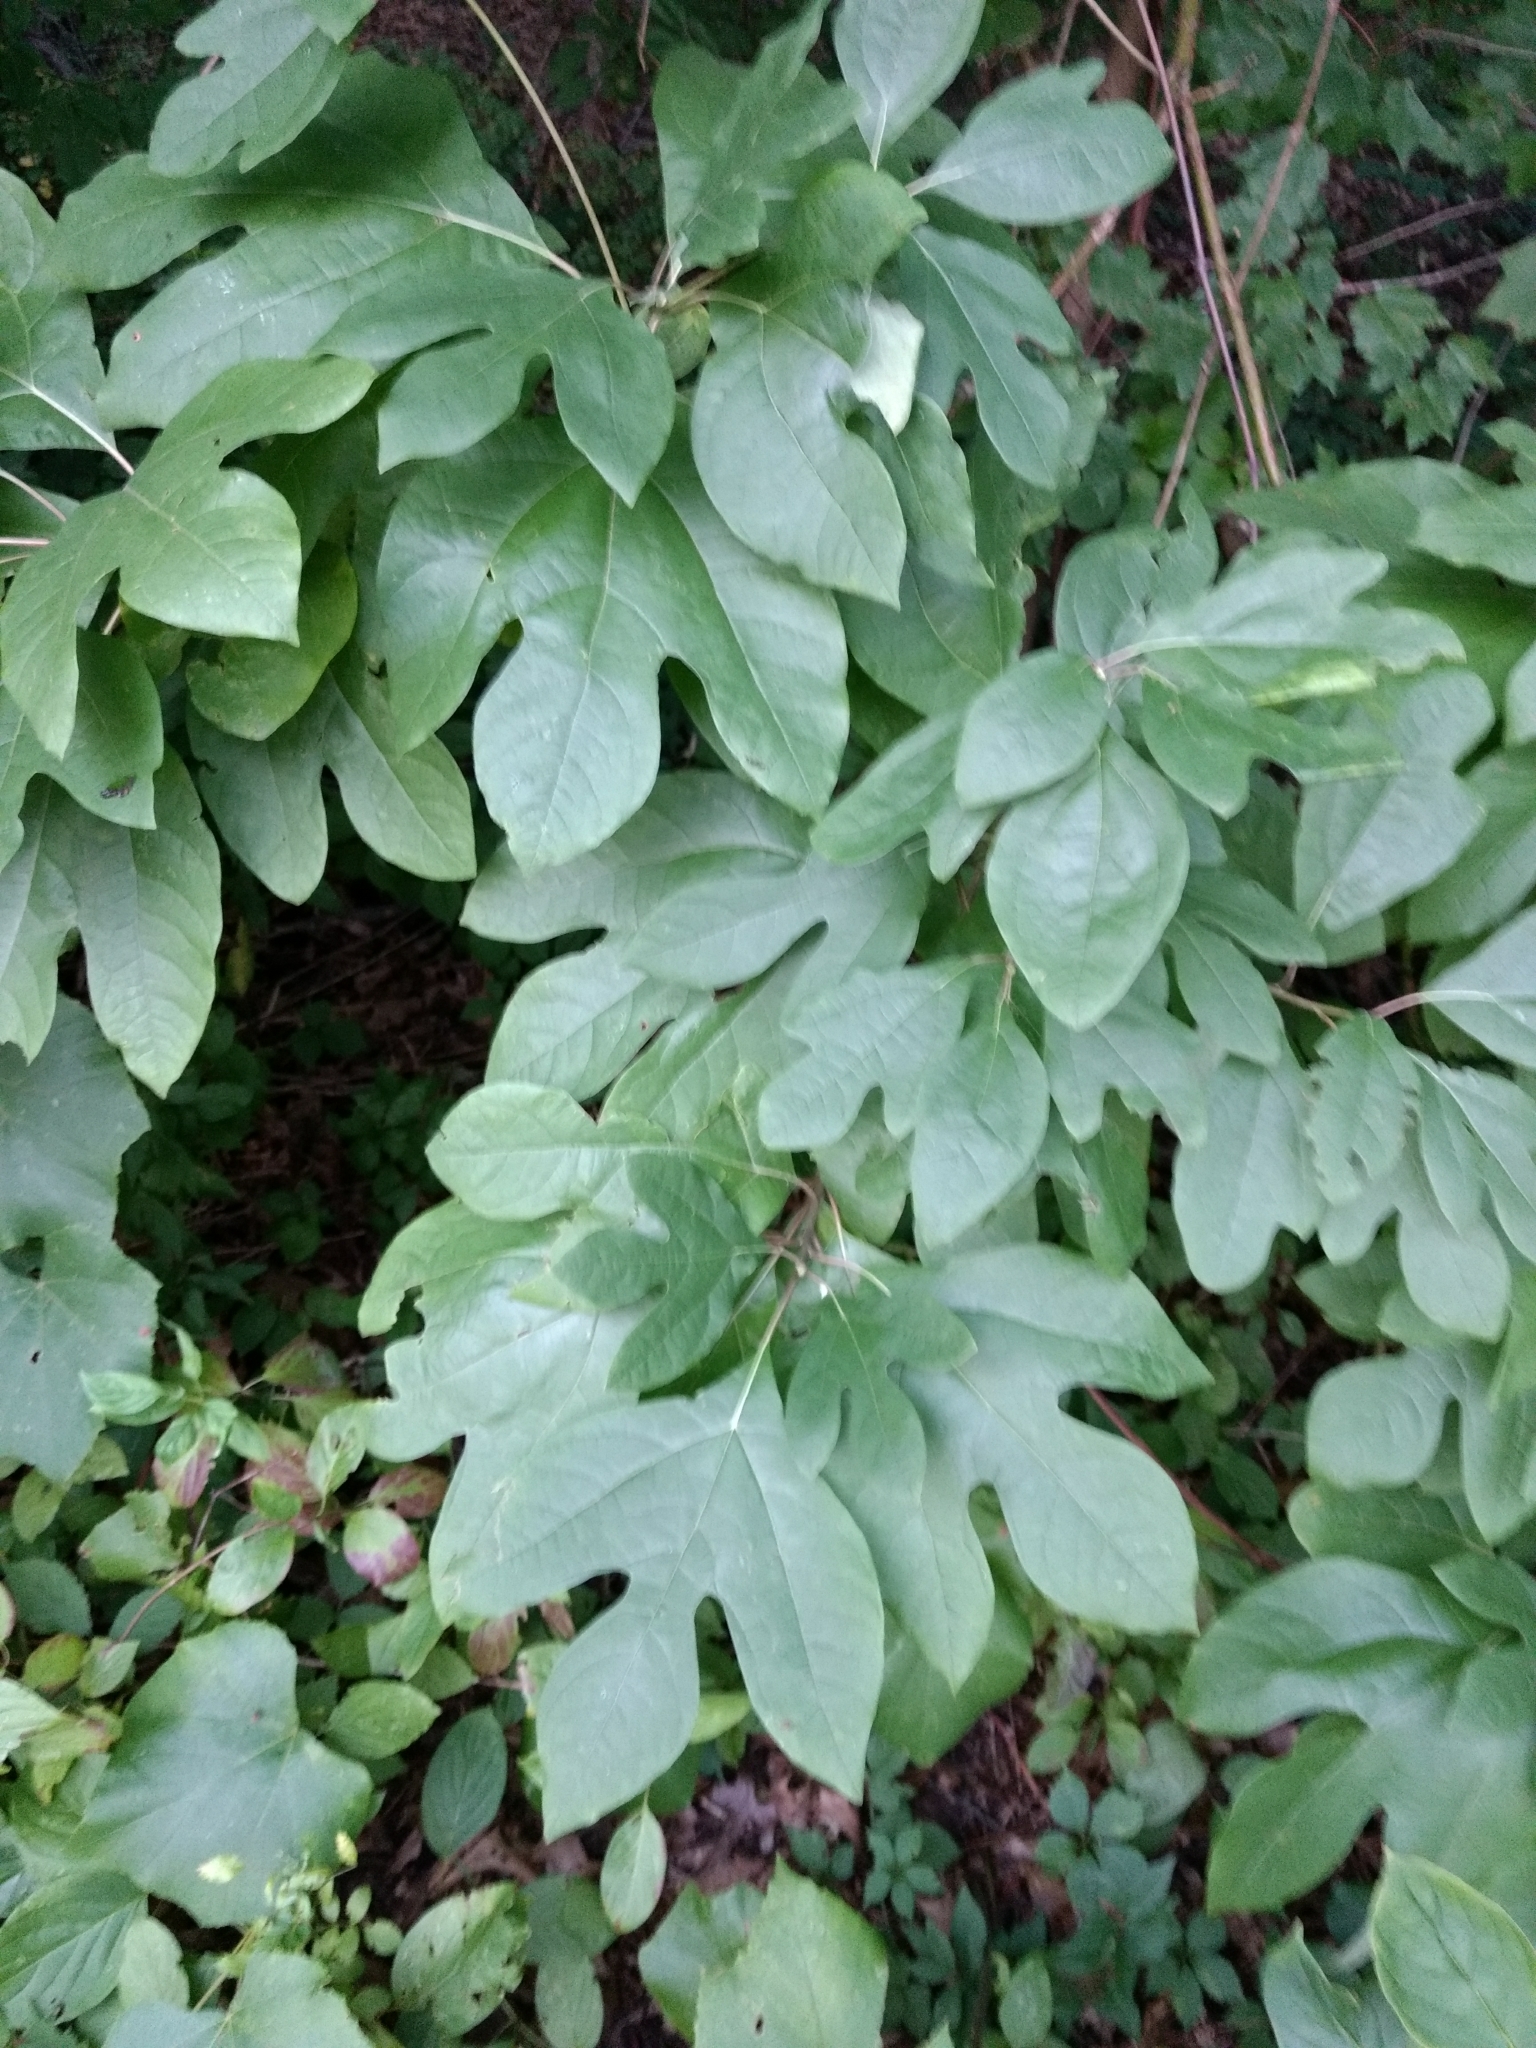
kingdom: Plantae
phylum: Tracheophyta
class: Magnoliopsida
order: Laurales
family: Lauraceae
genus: Sassafras
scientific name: Sassafras albidum
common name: Sassafras
